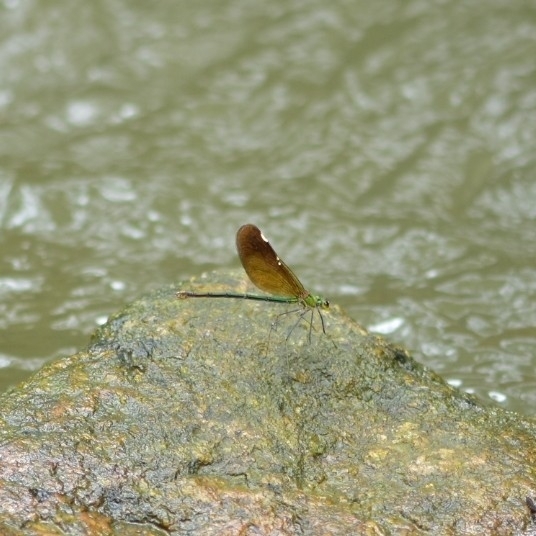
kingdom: Animalia
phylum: Arthropoda
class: Insecta
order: Odonata
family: Calopterygidae
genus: Neurobasis
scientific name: Neurobasis chinensis
